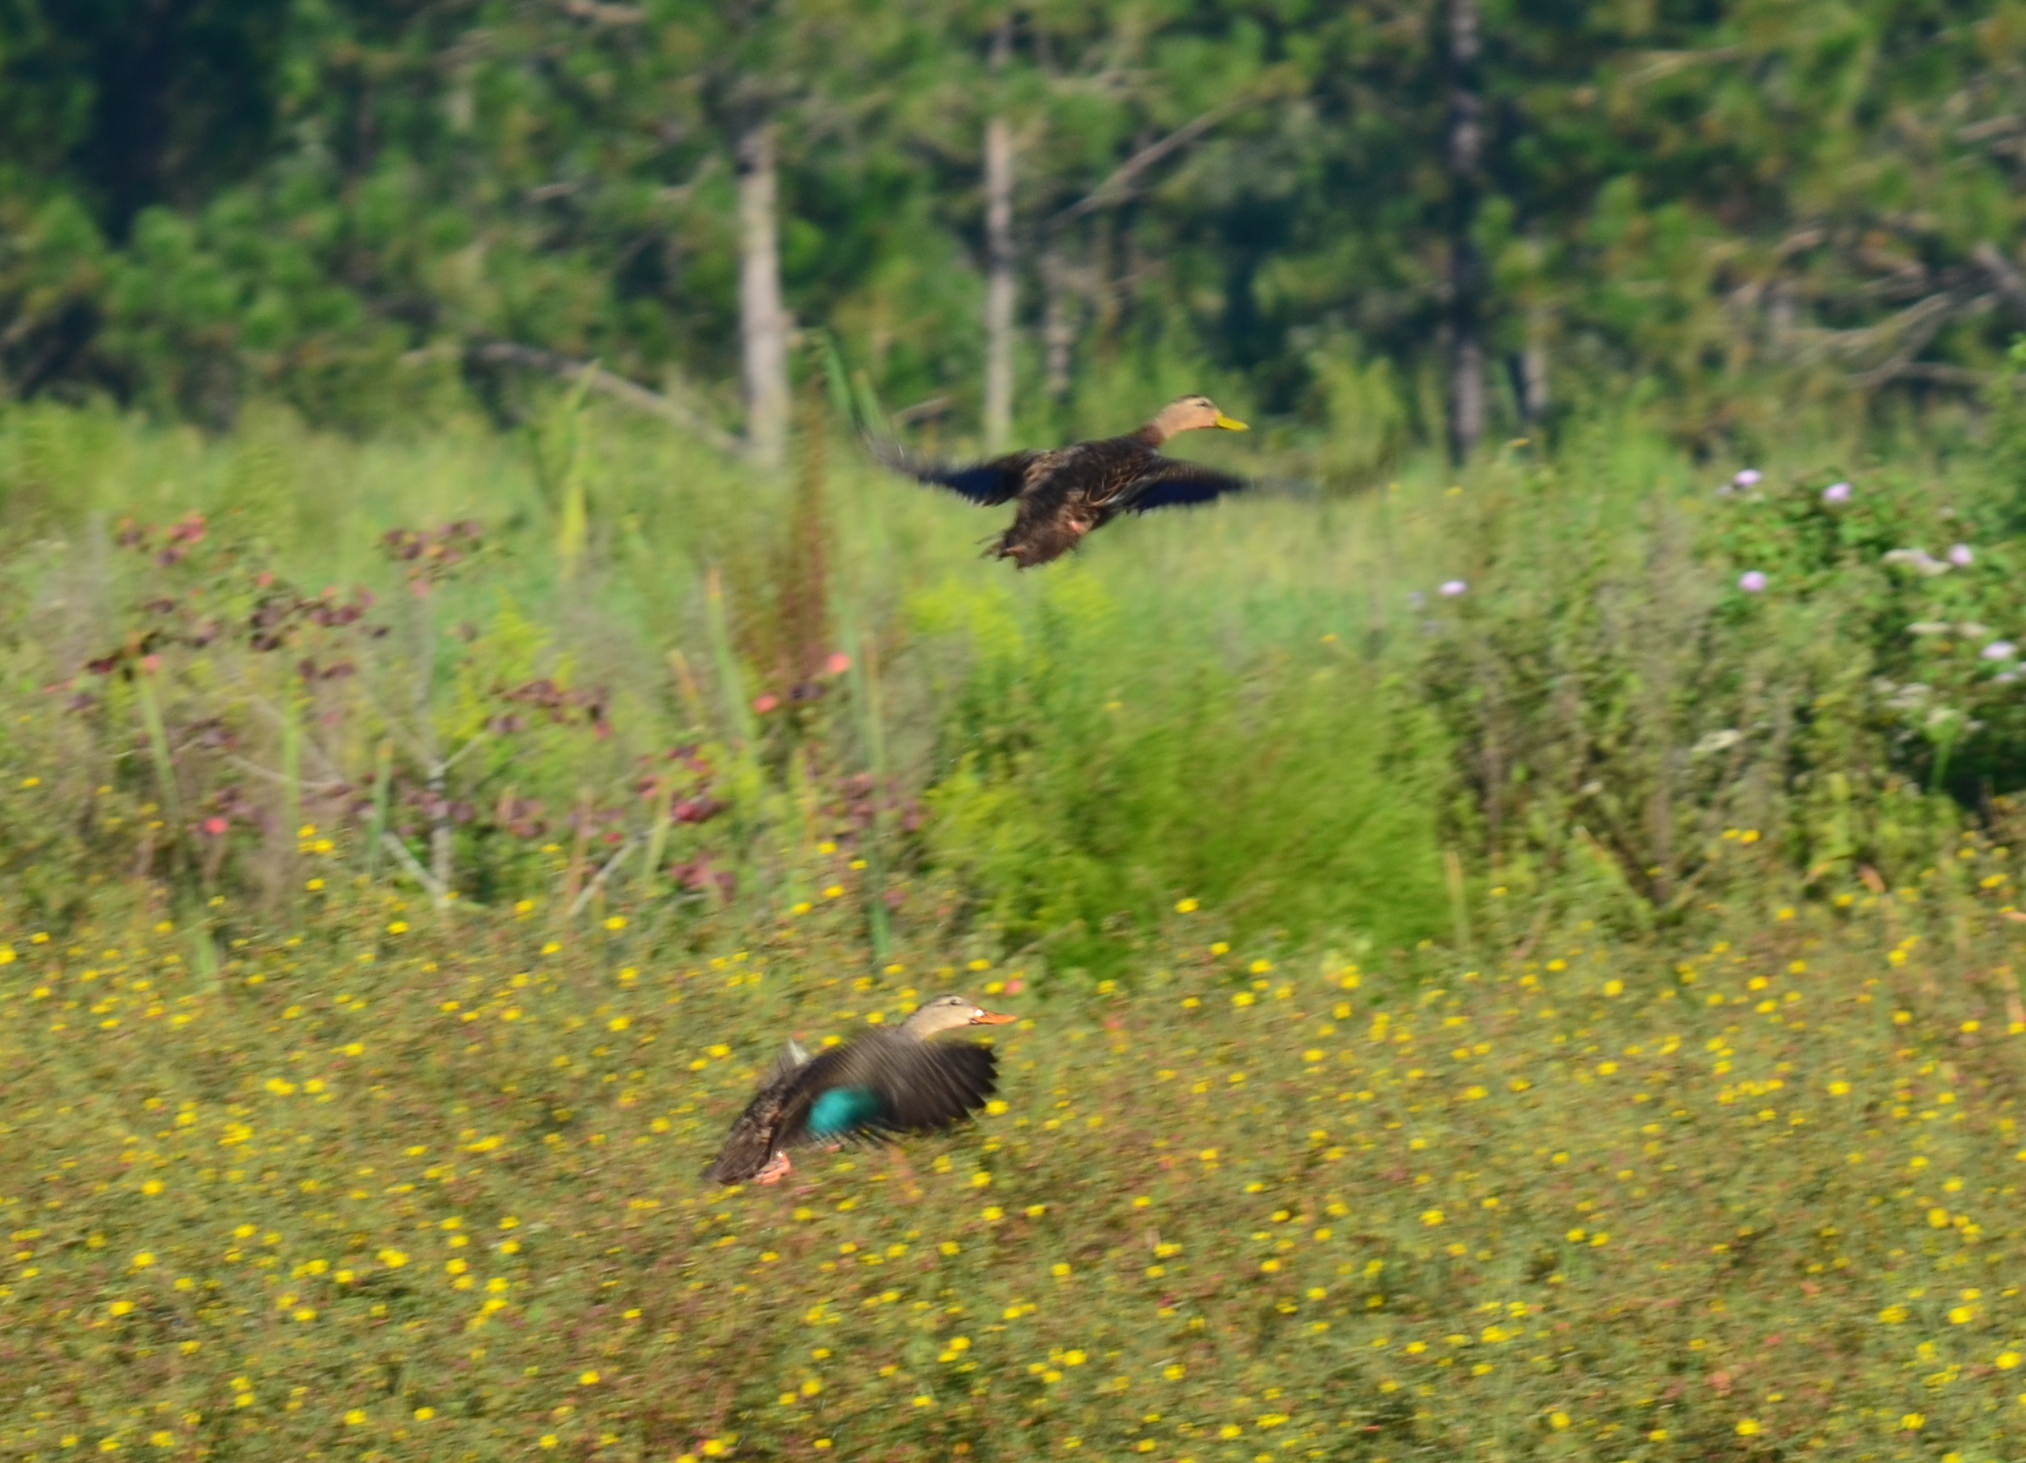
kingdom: Animalia
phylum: Chordata
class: Aves
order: Anseriformes
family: Anatidae
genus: Anas
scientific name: Anas fulvigula
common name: Mottled duck
